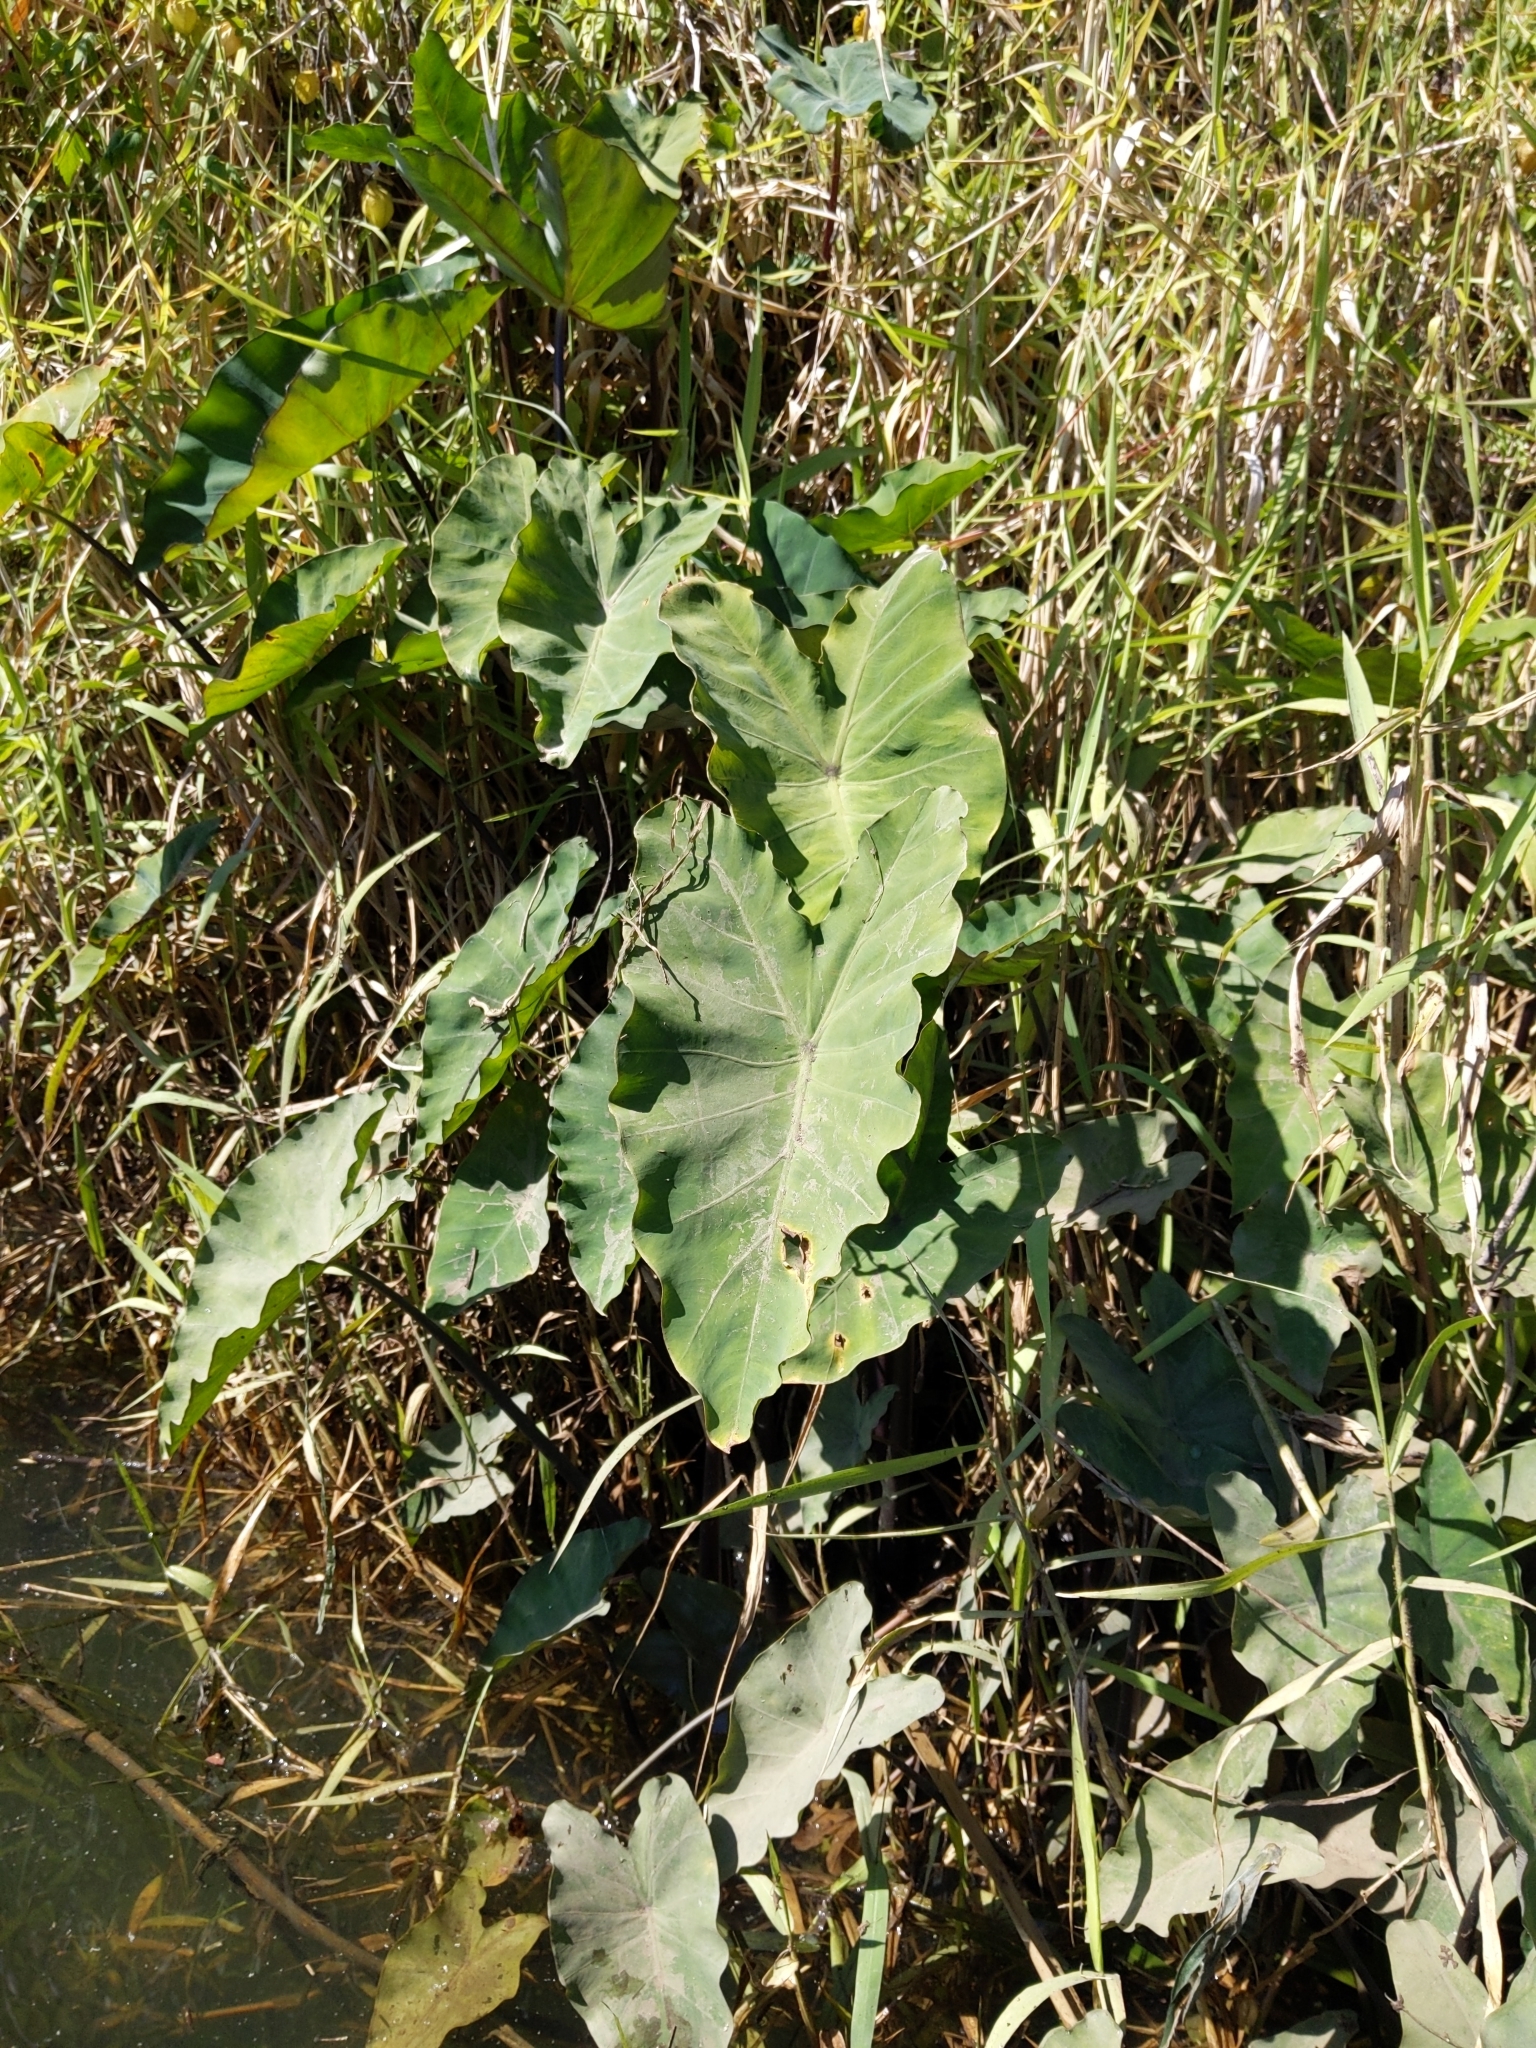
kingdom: Plantae
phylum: Tracheophyta
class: Liliopsida
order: Alismatales
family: Araceae
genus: Colocasia
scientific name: Colocasia esculenta
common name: Taro
